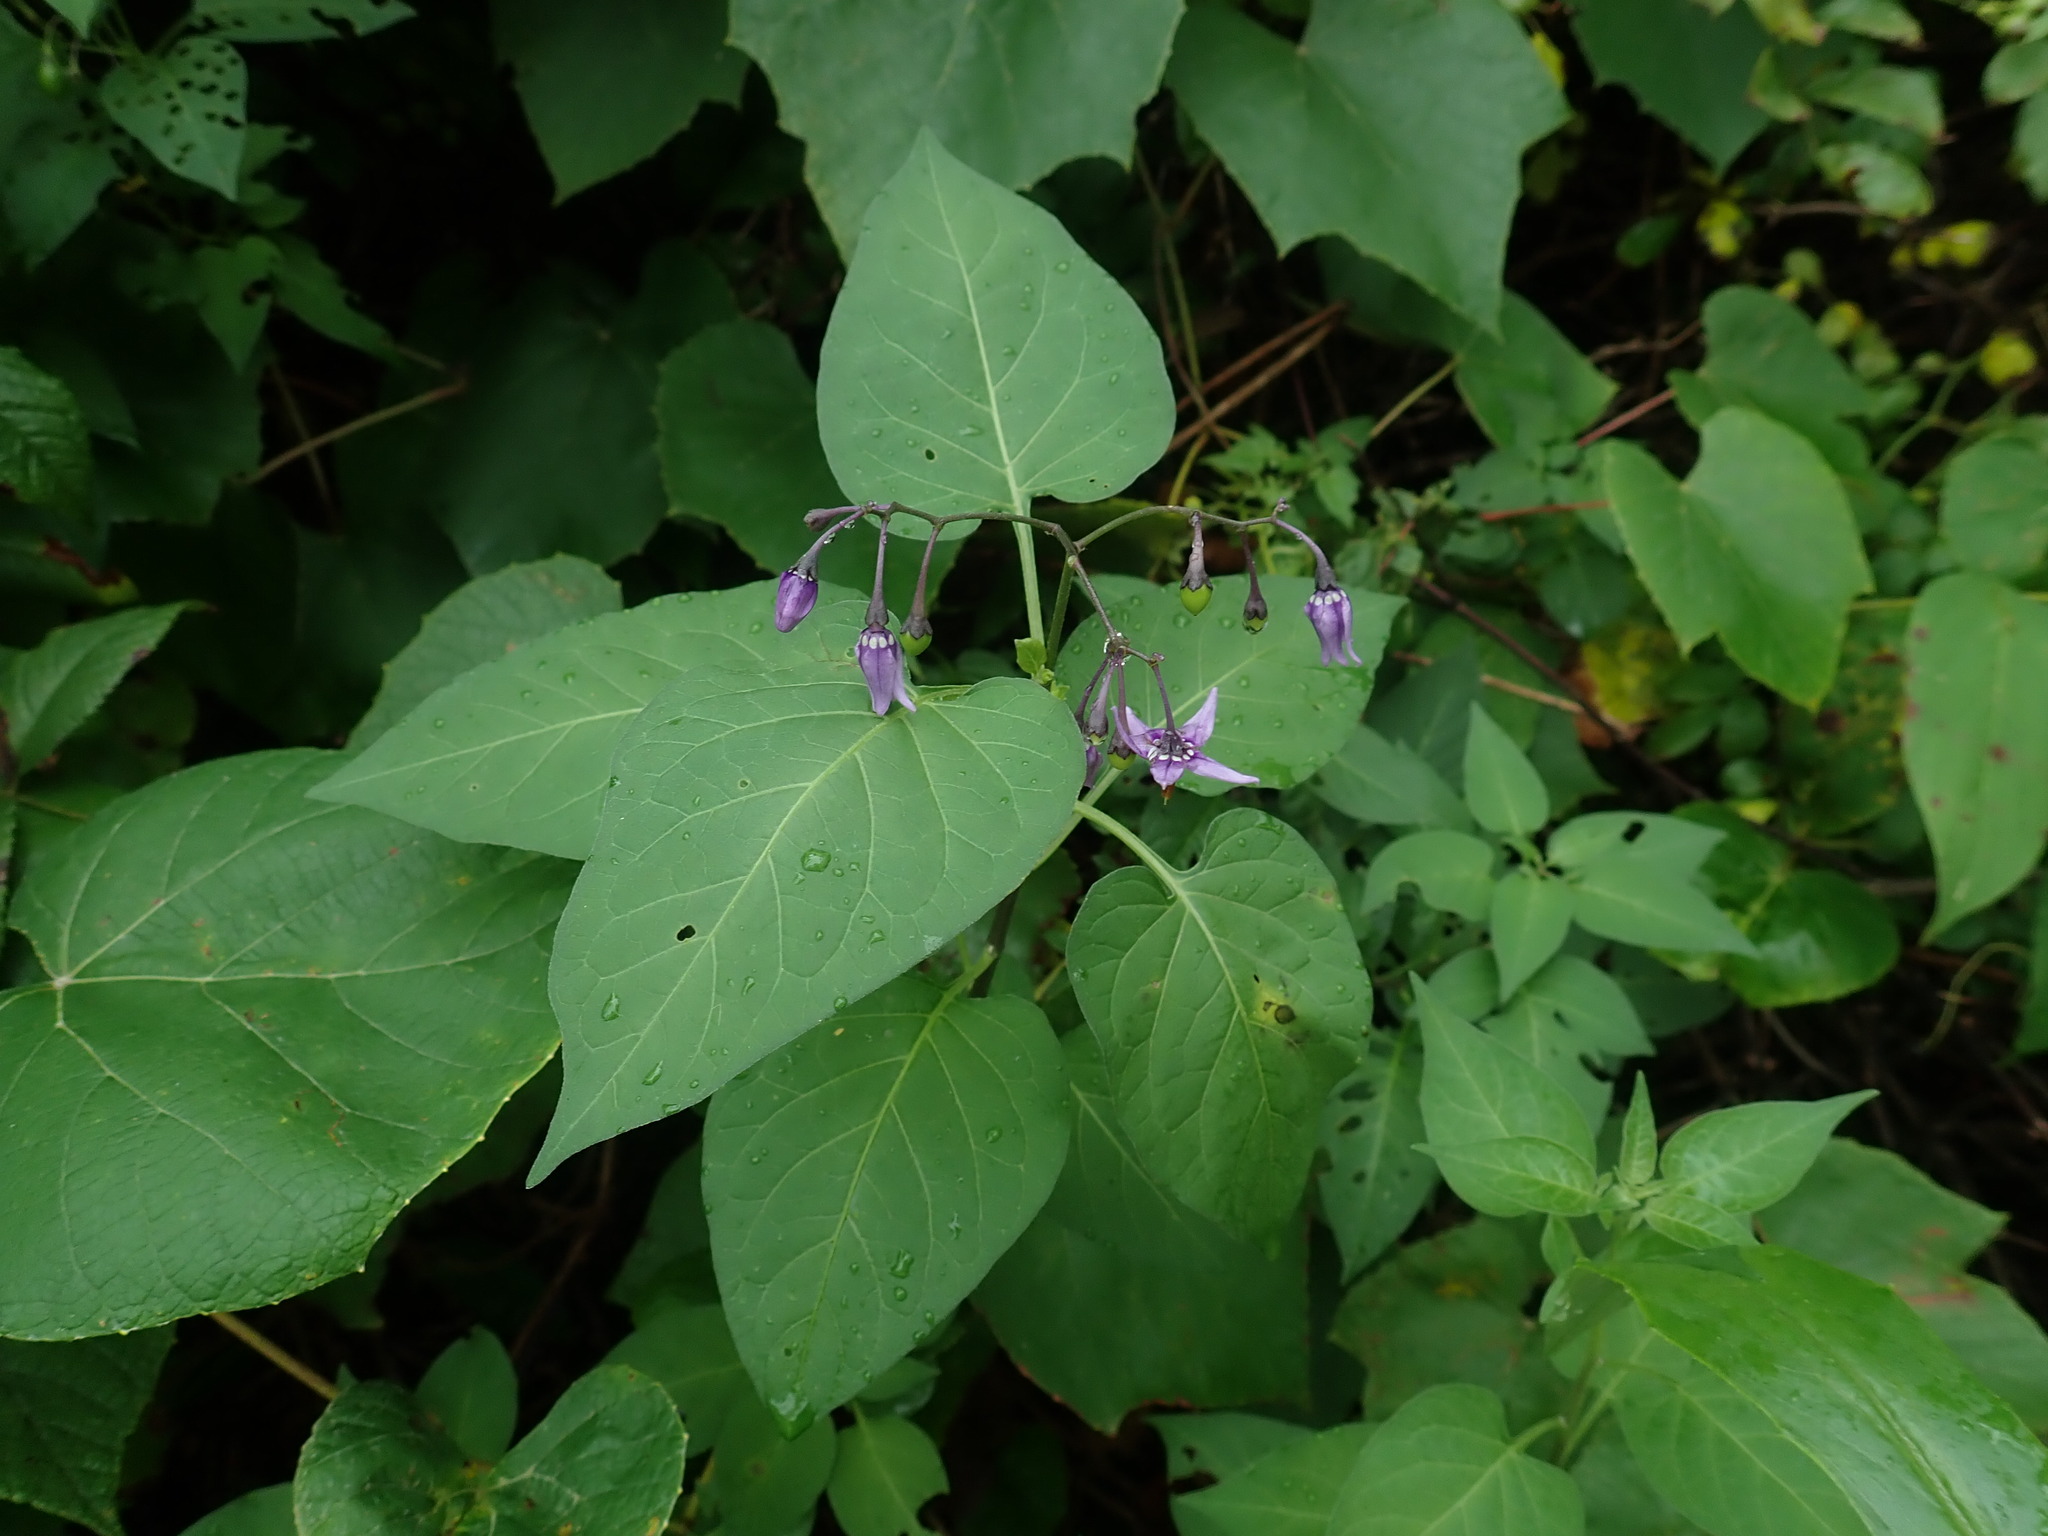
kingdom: Plantae
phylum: Tracheophyta
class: Magnoliopsida
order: Solanales
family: Solanaceae
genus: Solanum
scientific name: Solanum dulcamara
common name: Climbing nightshade
